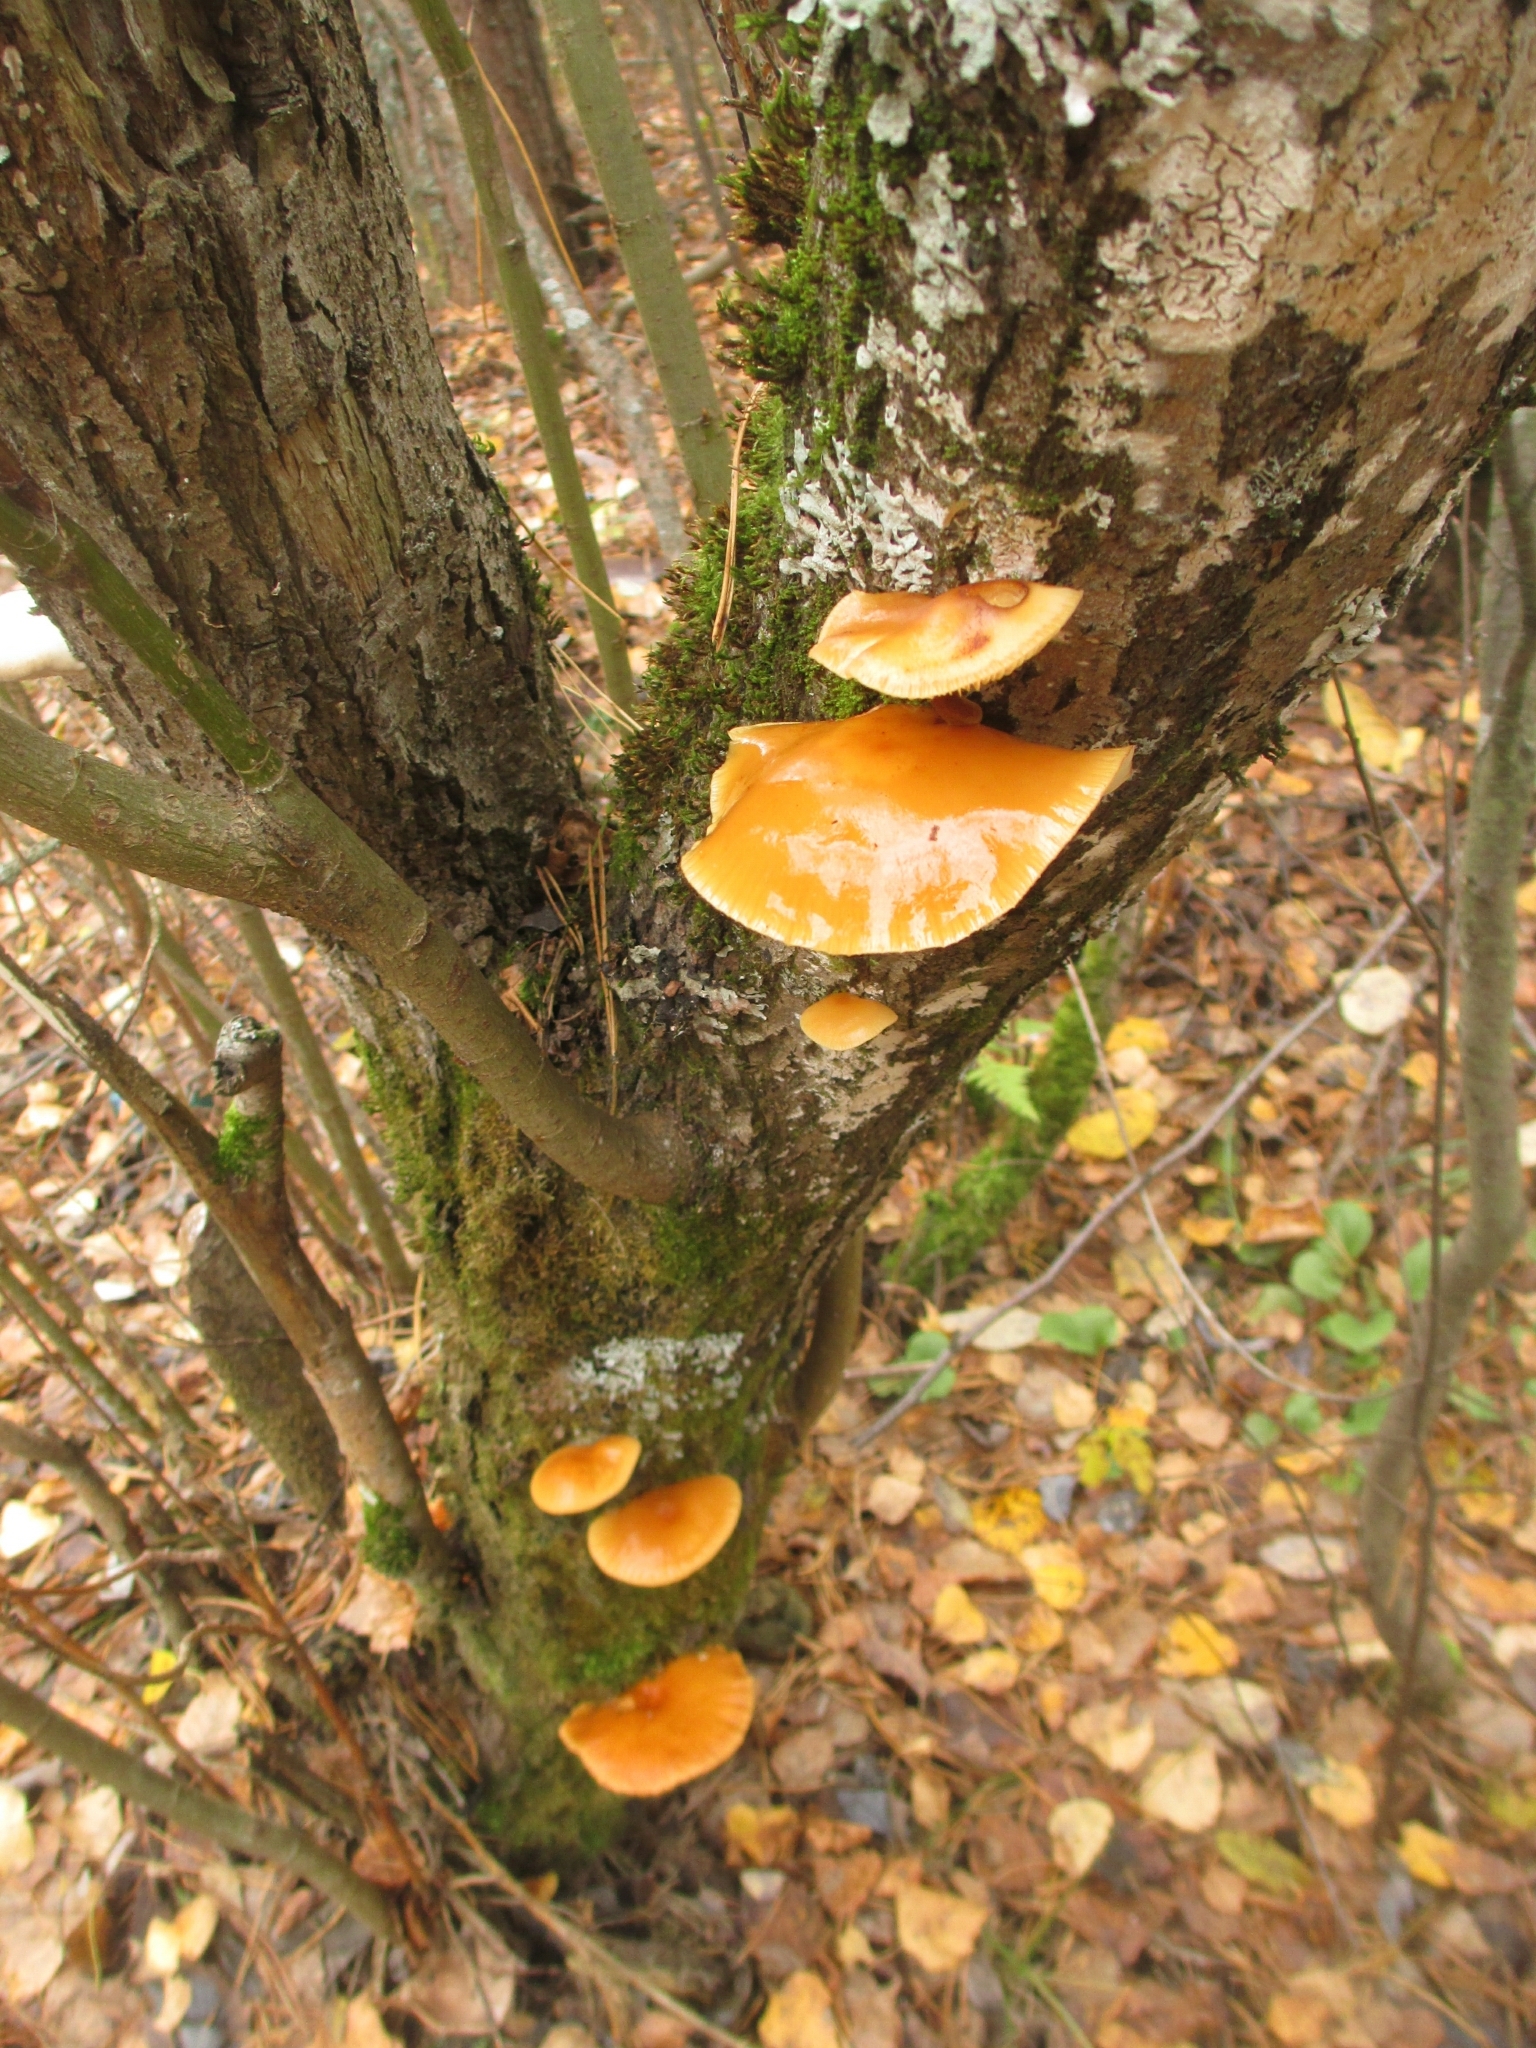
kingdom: Fungi
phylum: Basidiomycota
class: Agaricomycetes
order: Agaricales
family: Physalacriaceae
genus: Flammulina
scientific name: Flammulina
